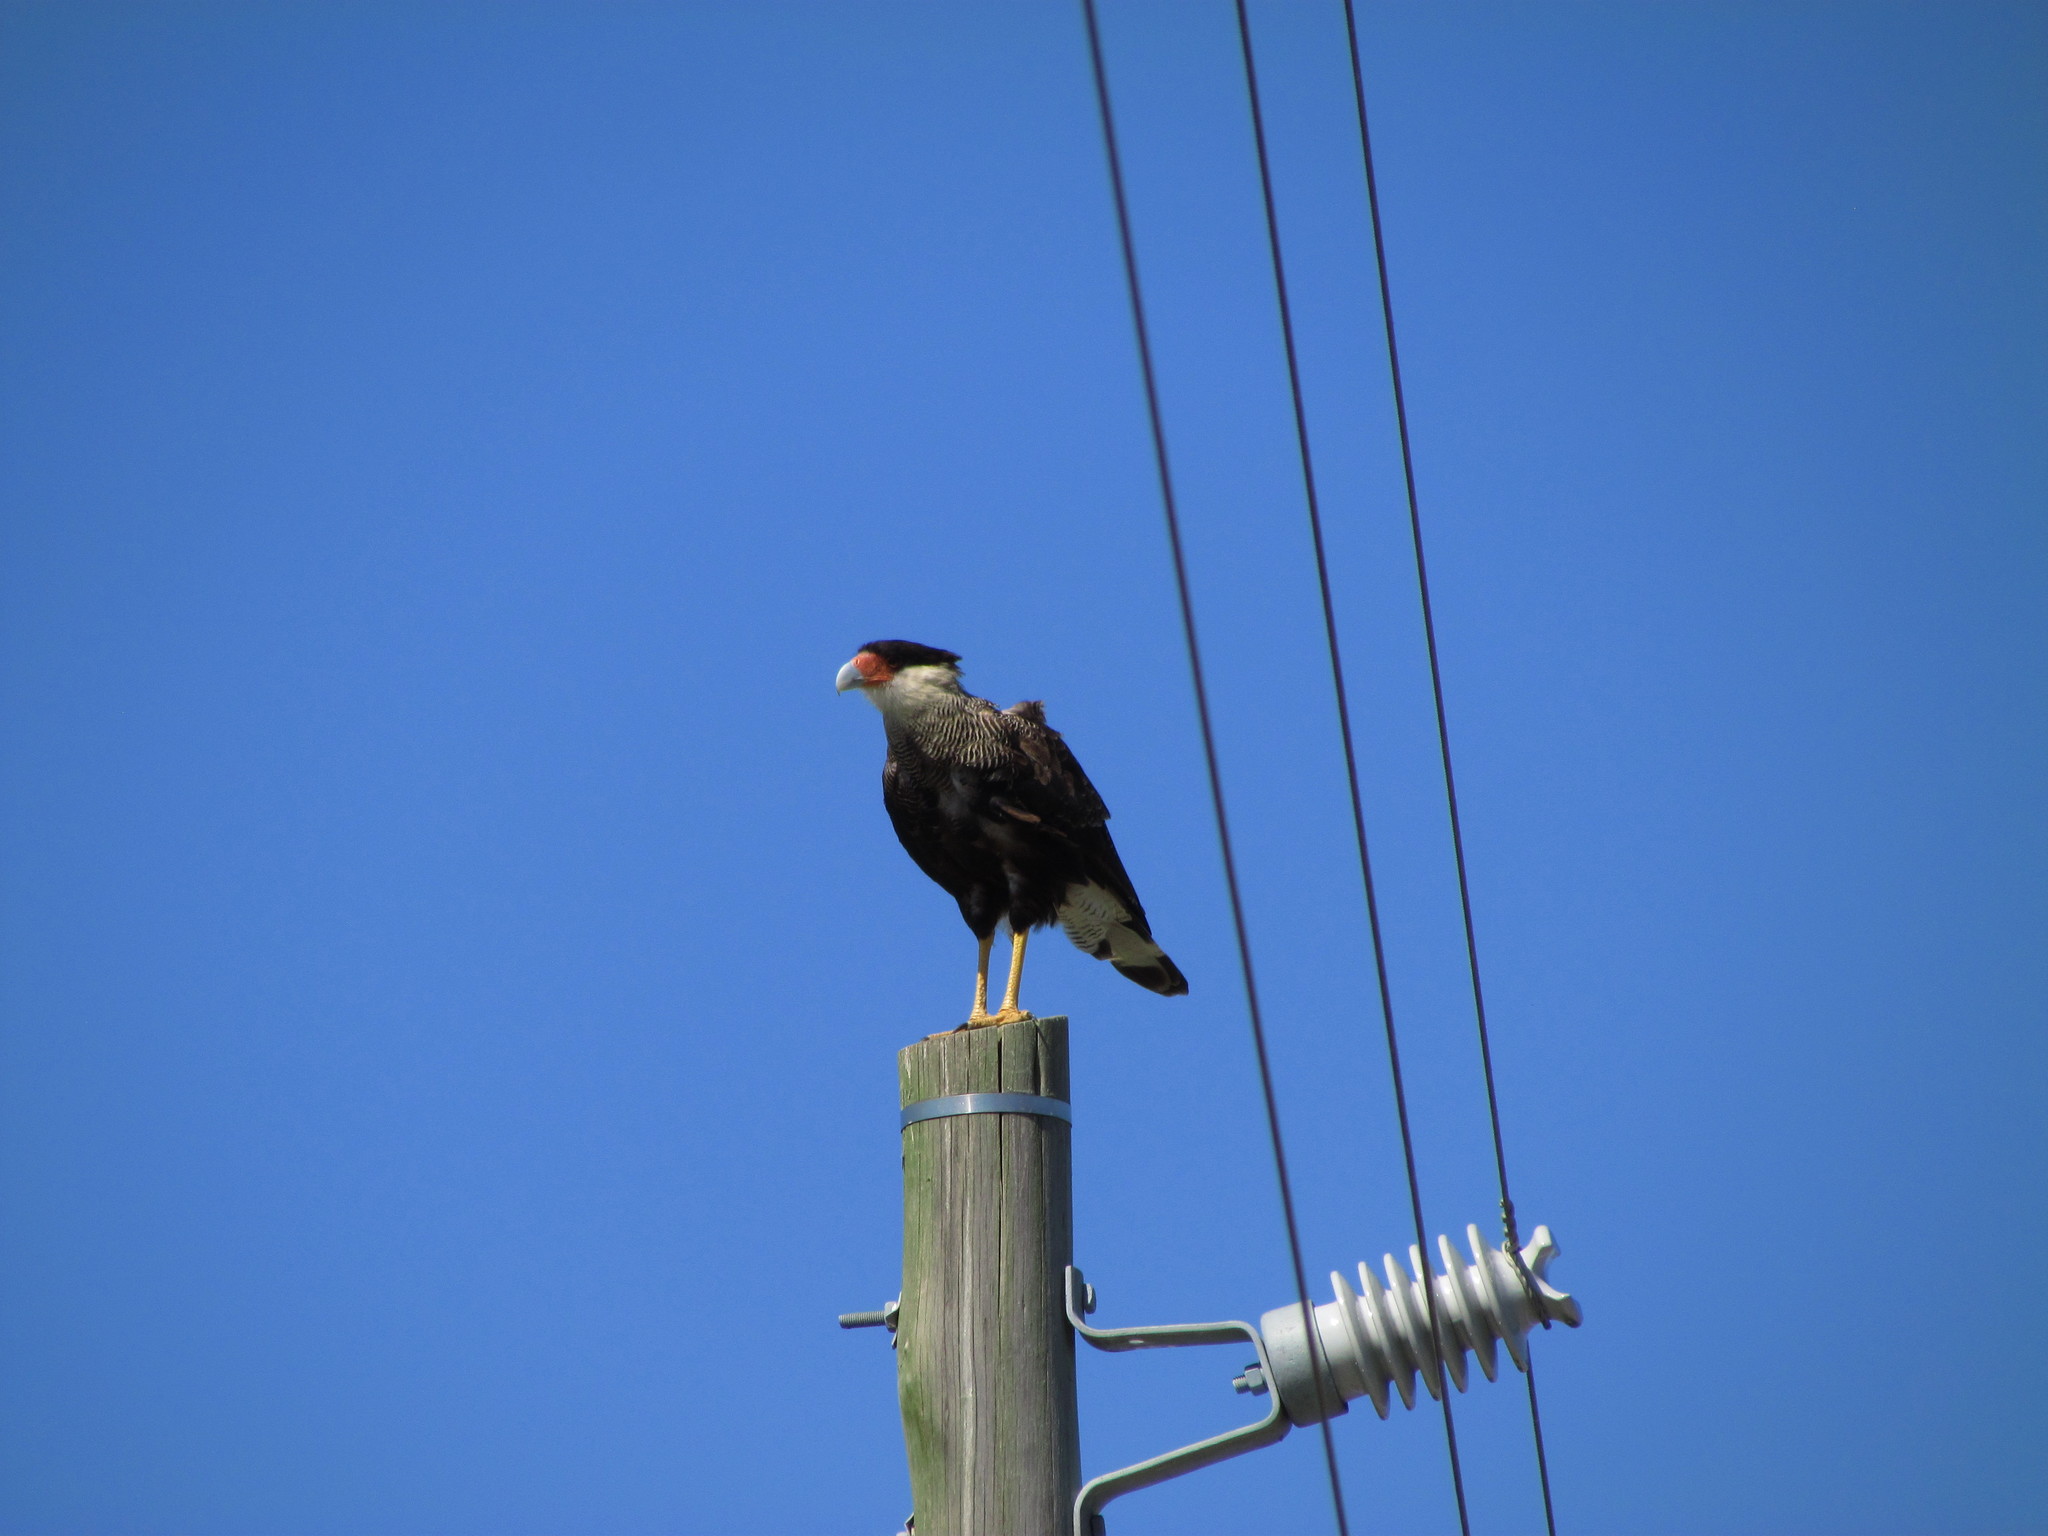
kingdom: Animalia
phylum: Chordata
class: Aves
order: Falconiformes
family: Falconidae
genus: Caracara
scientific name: Caracara plancus
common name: Southern caracara
